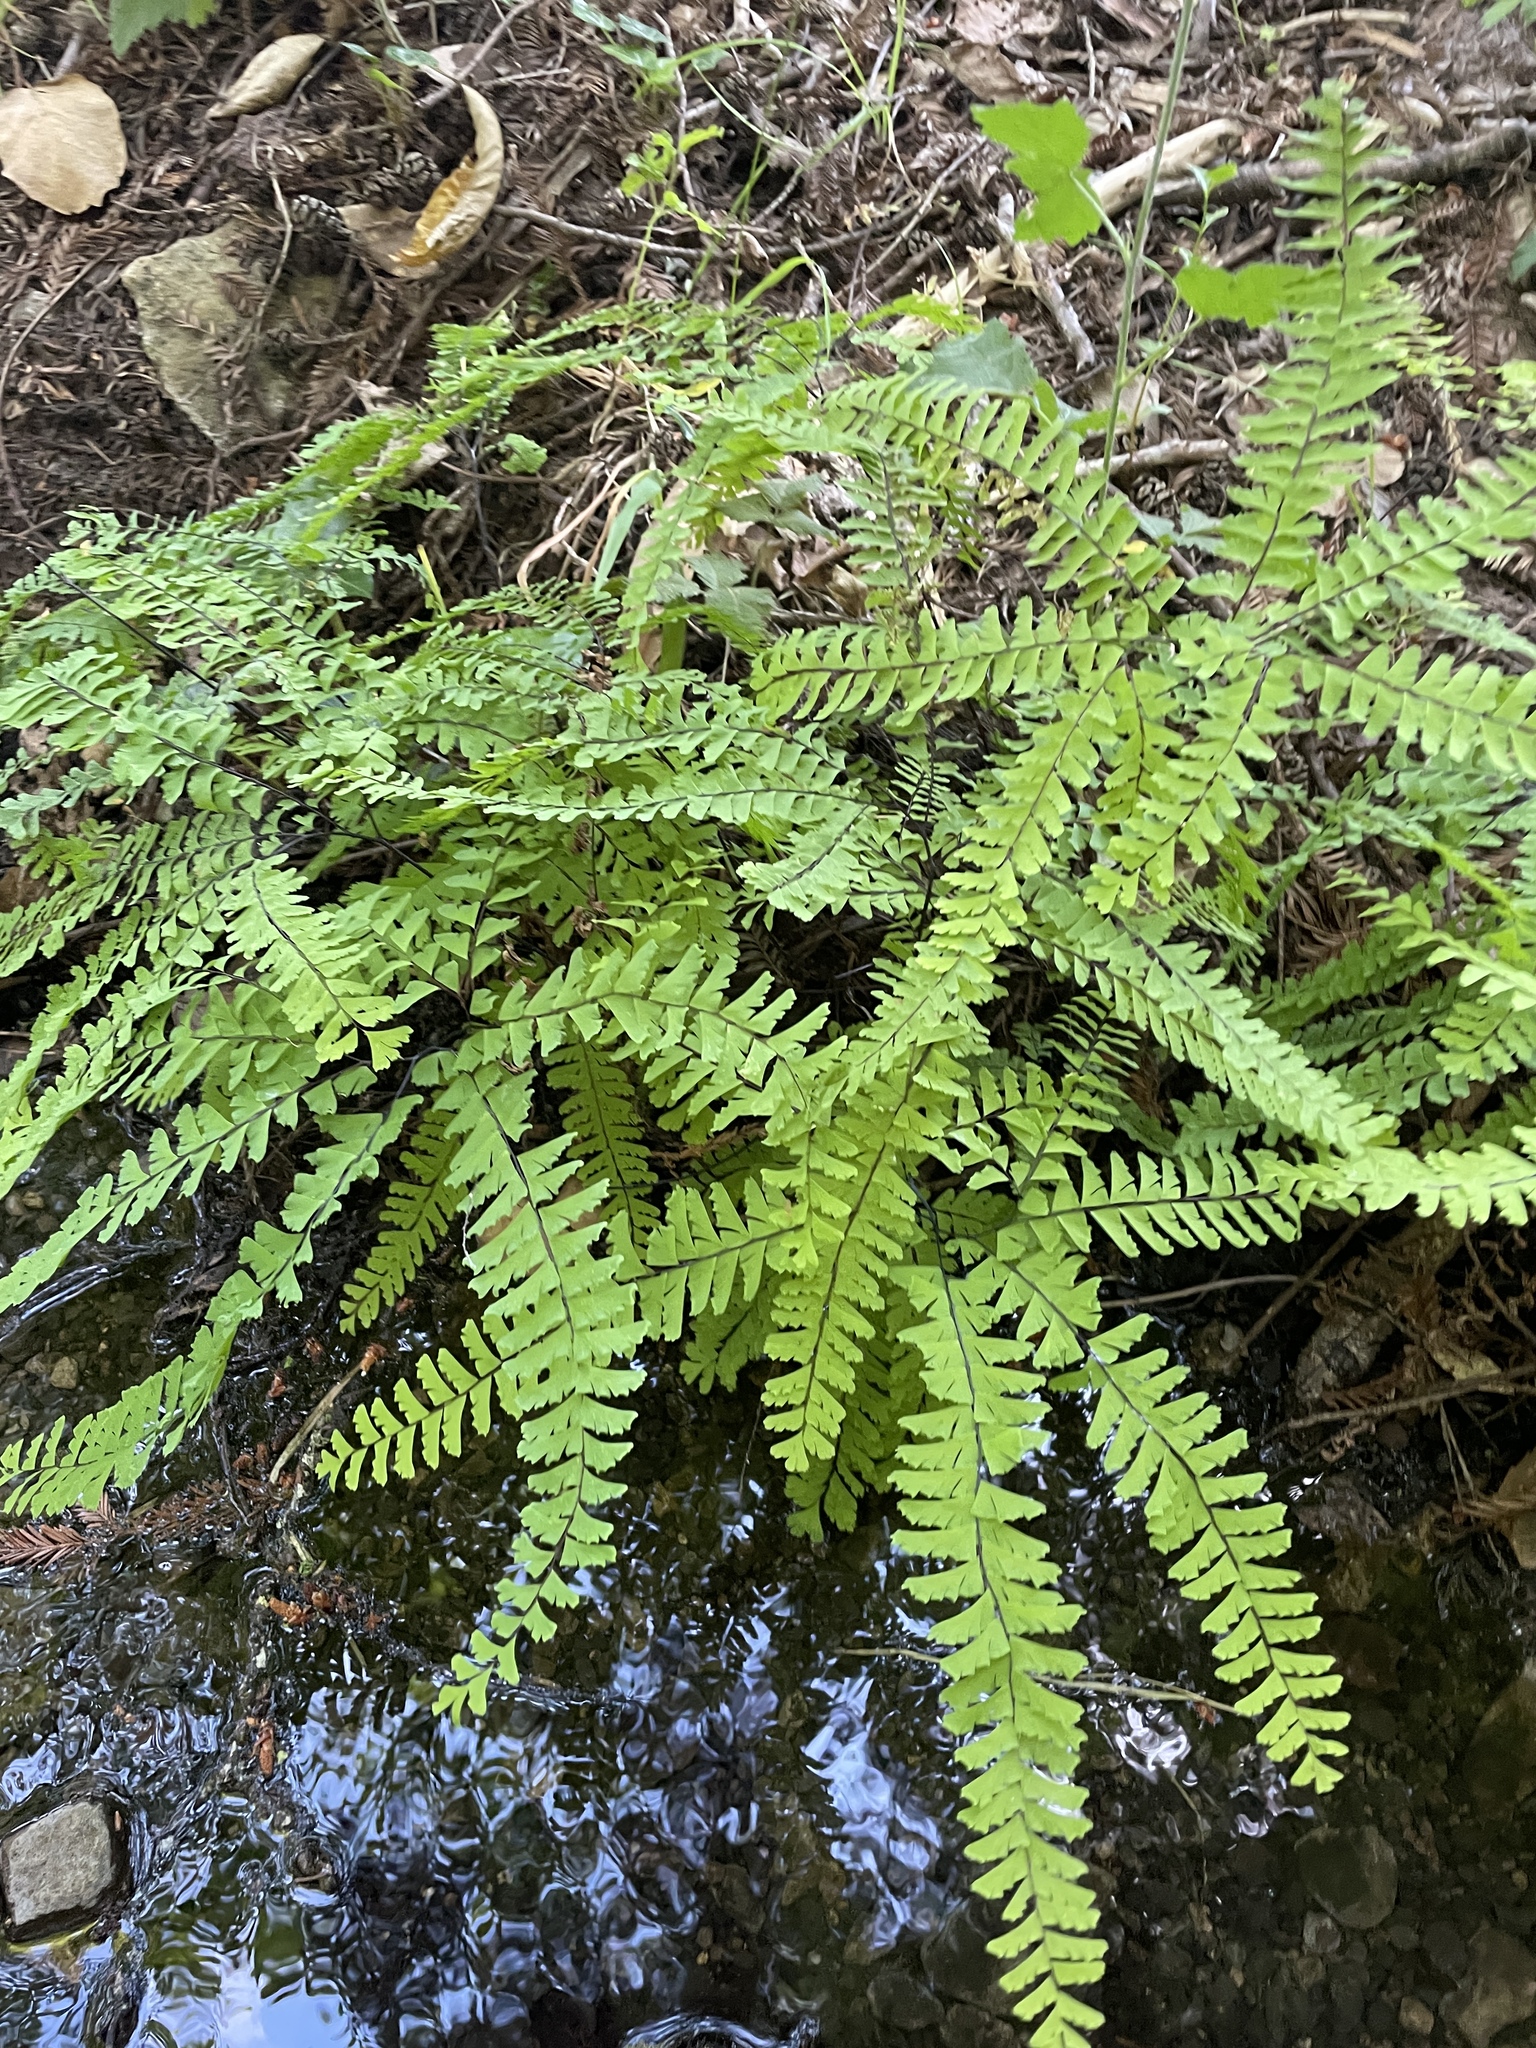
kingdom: Plantae
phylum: Tracheophyta
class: Polypodiopsida
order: Polypodiales
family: Pteridaceae
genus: Adiantum
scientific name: Adiantum aleuticum
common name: Aleutian maidenhair fern
